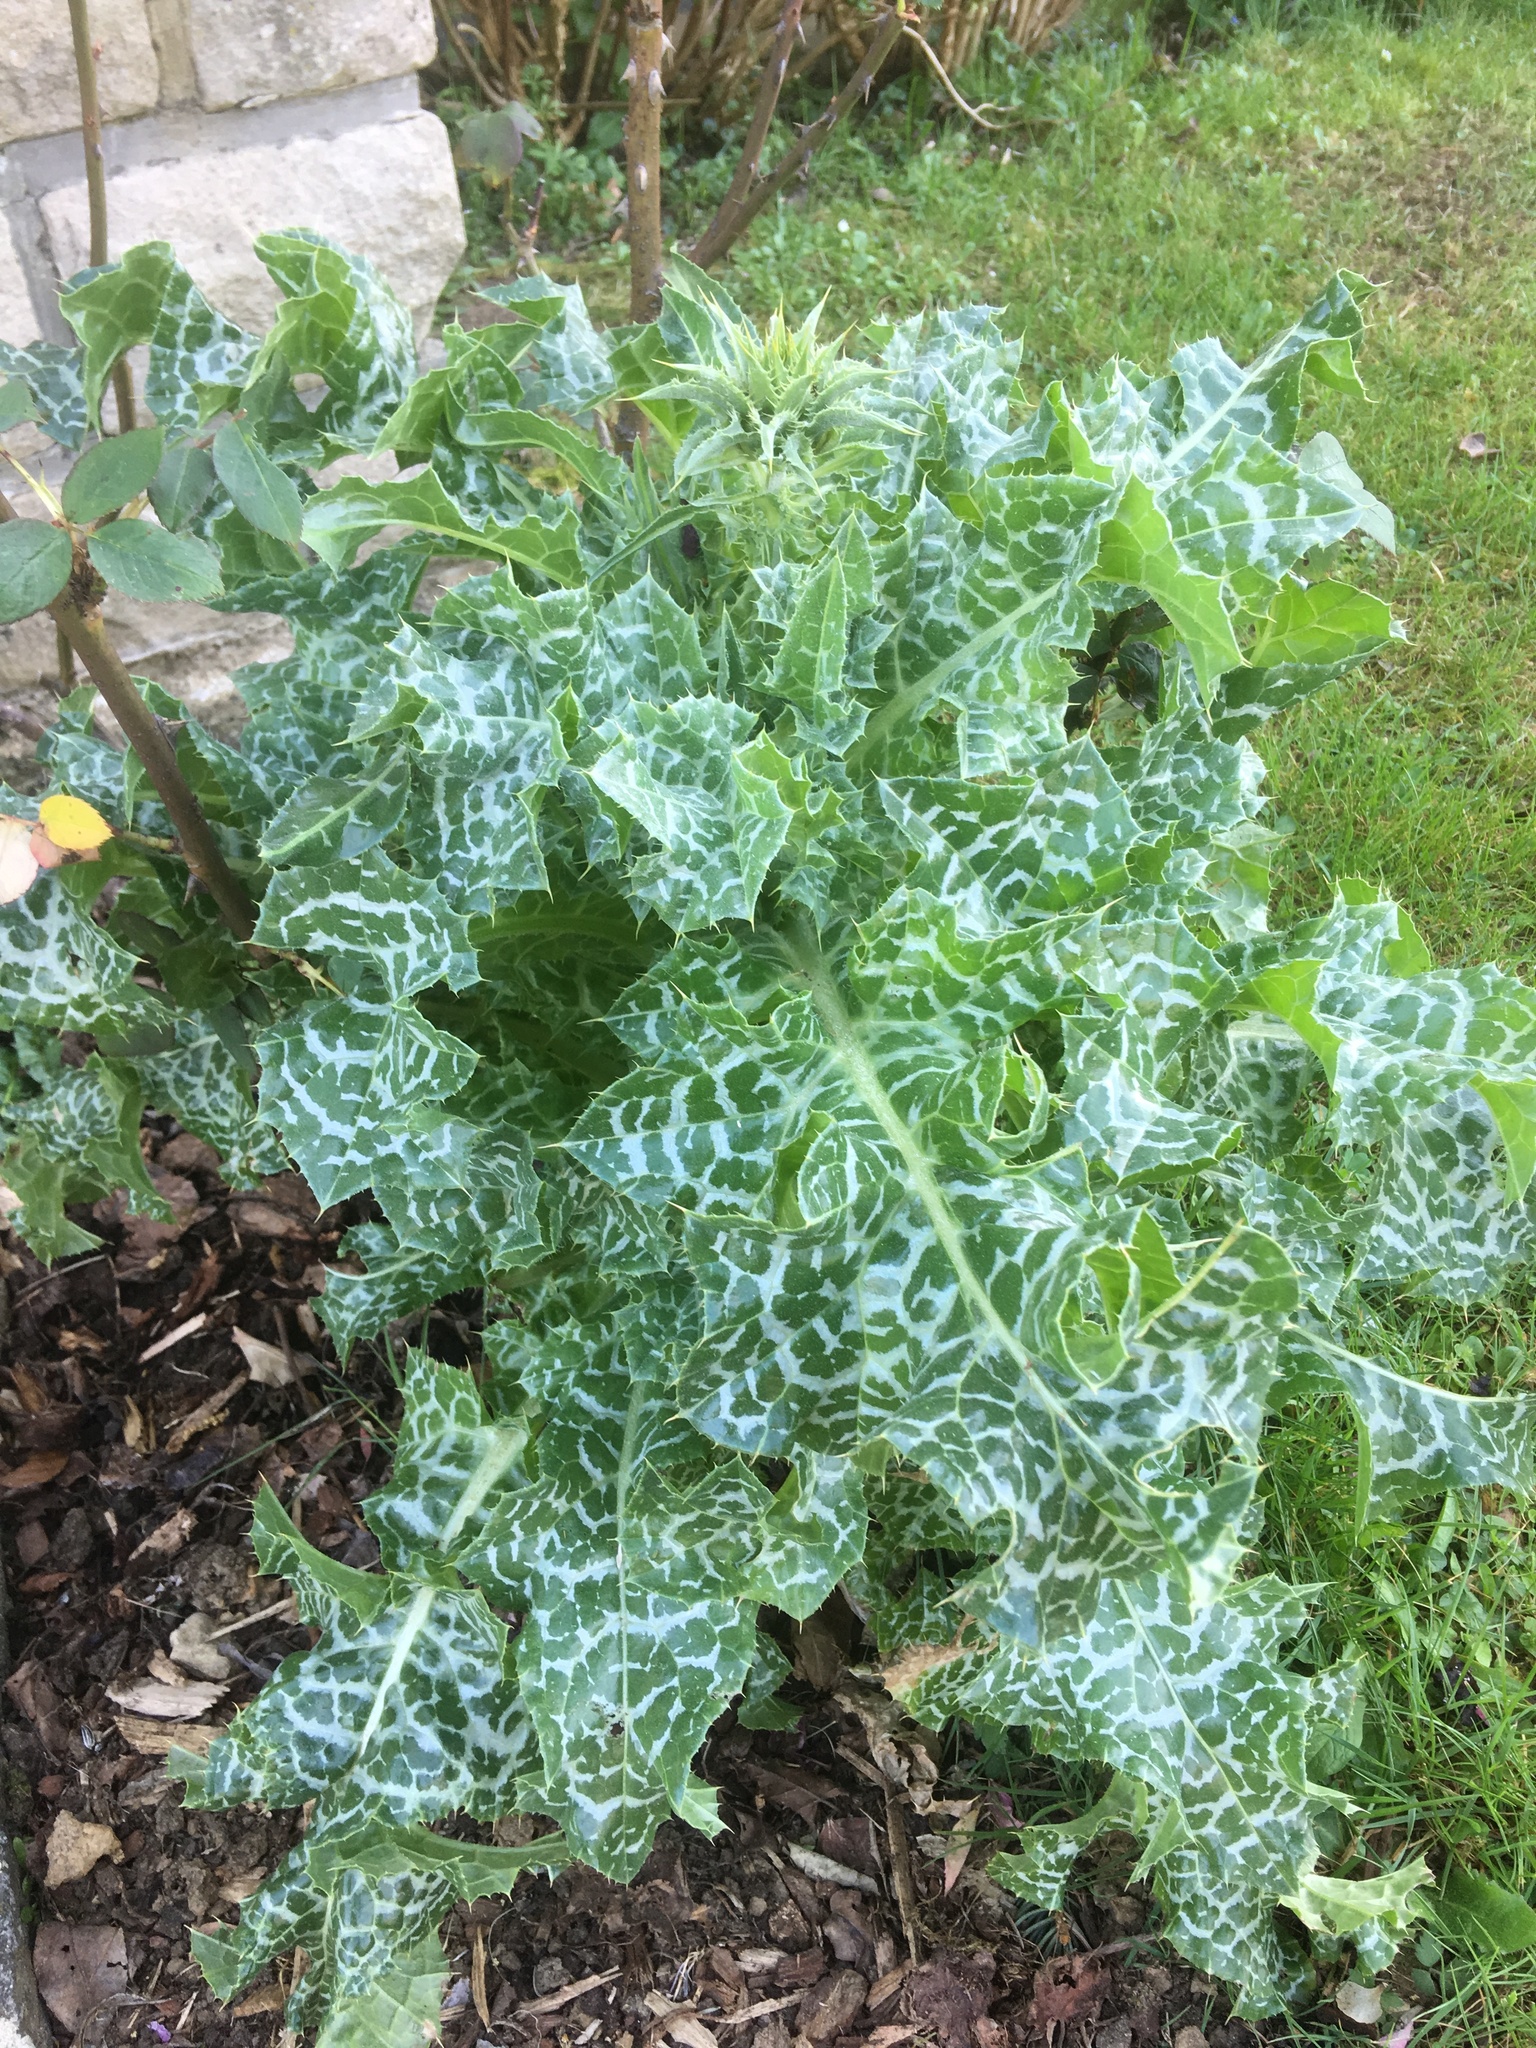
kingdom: Plantae
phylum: Tracheophyta
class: Magnoliopsida
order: Asterales
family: Asteraceae
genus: Silybum
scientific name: Silybum marianum
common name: Milk thistle
